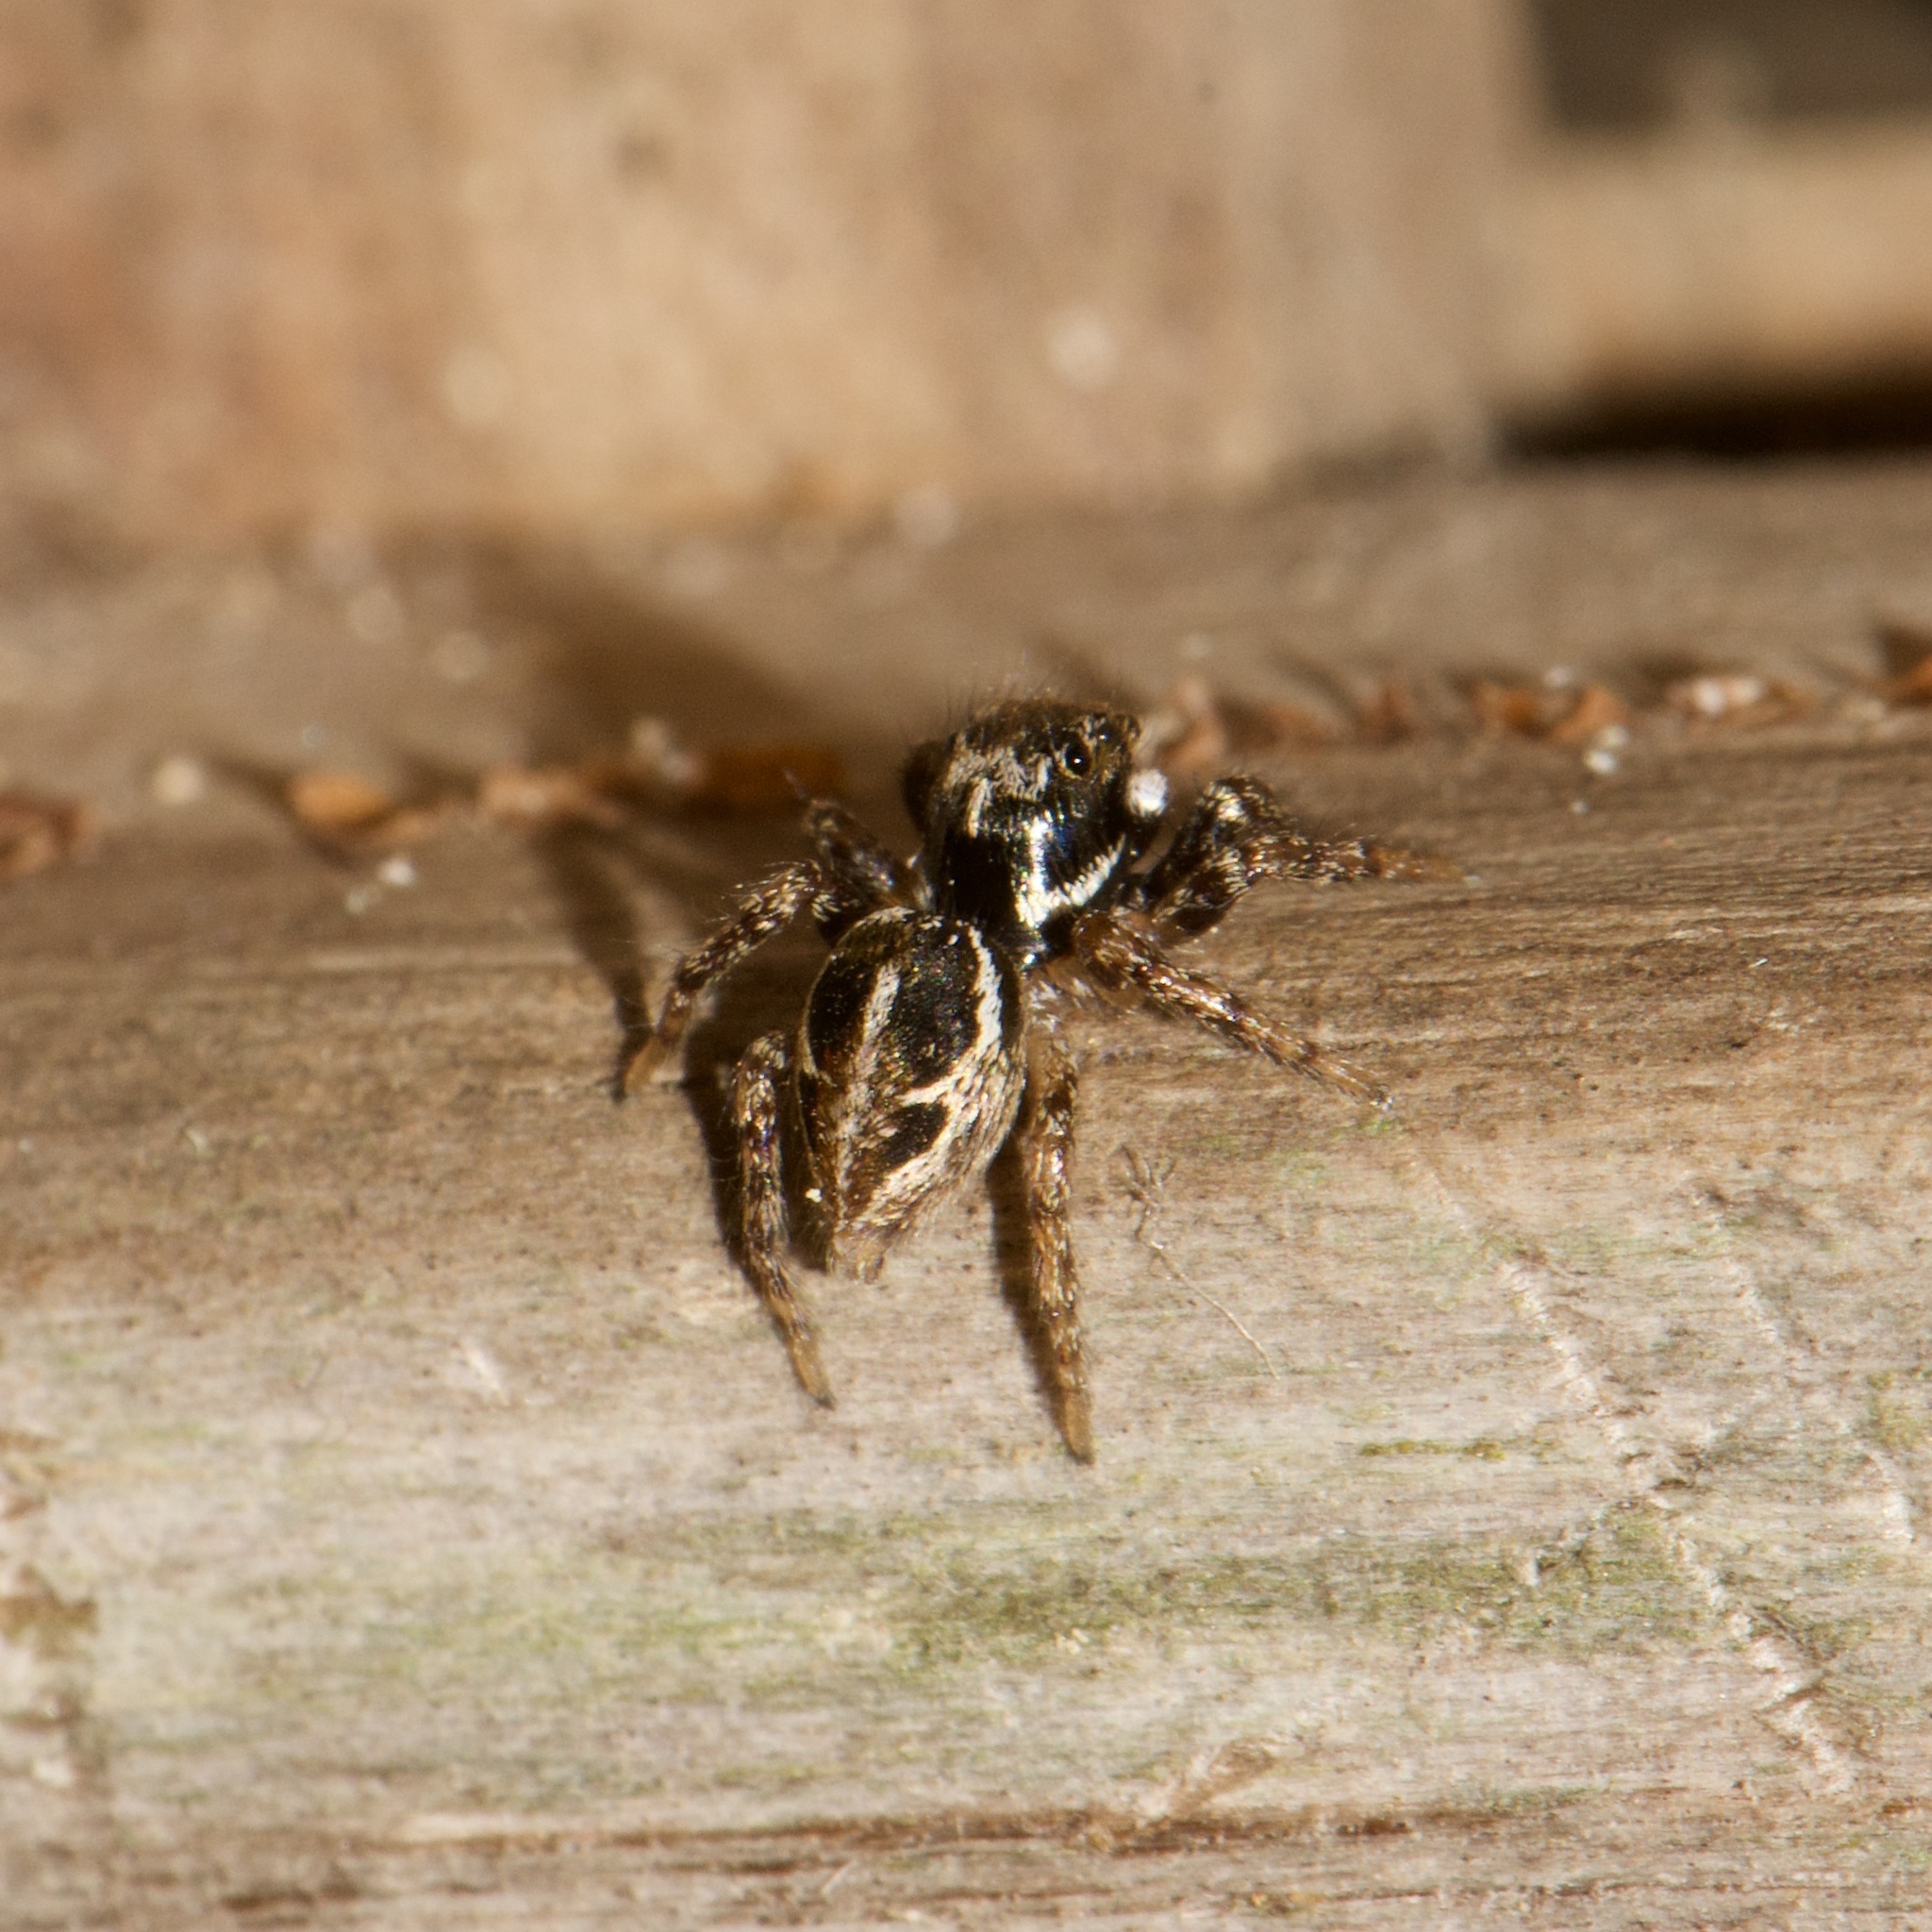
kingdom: Animalia
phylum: Arthropoda
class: Arachnida
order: Araneae
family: Salticidae
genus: Anasaitis
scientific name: Anasaitis canosa
